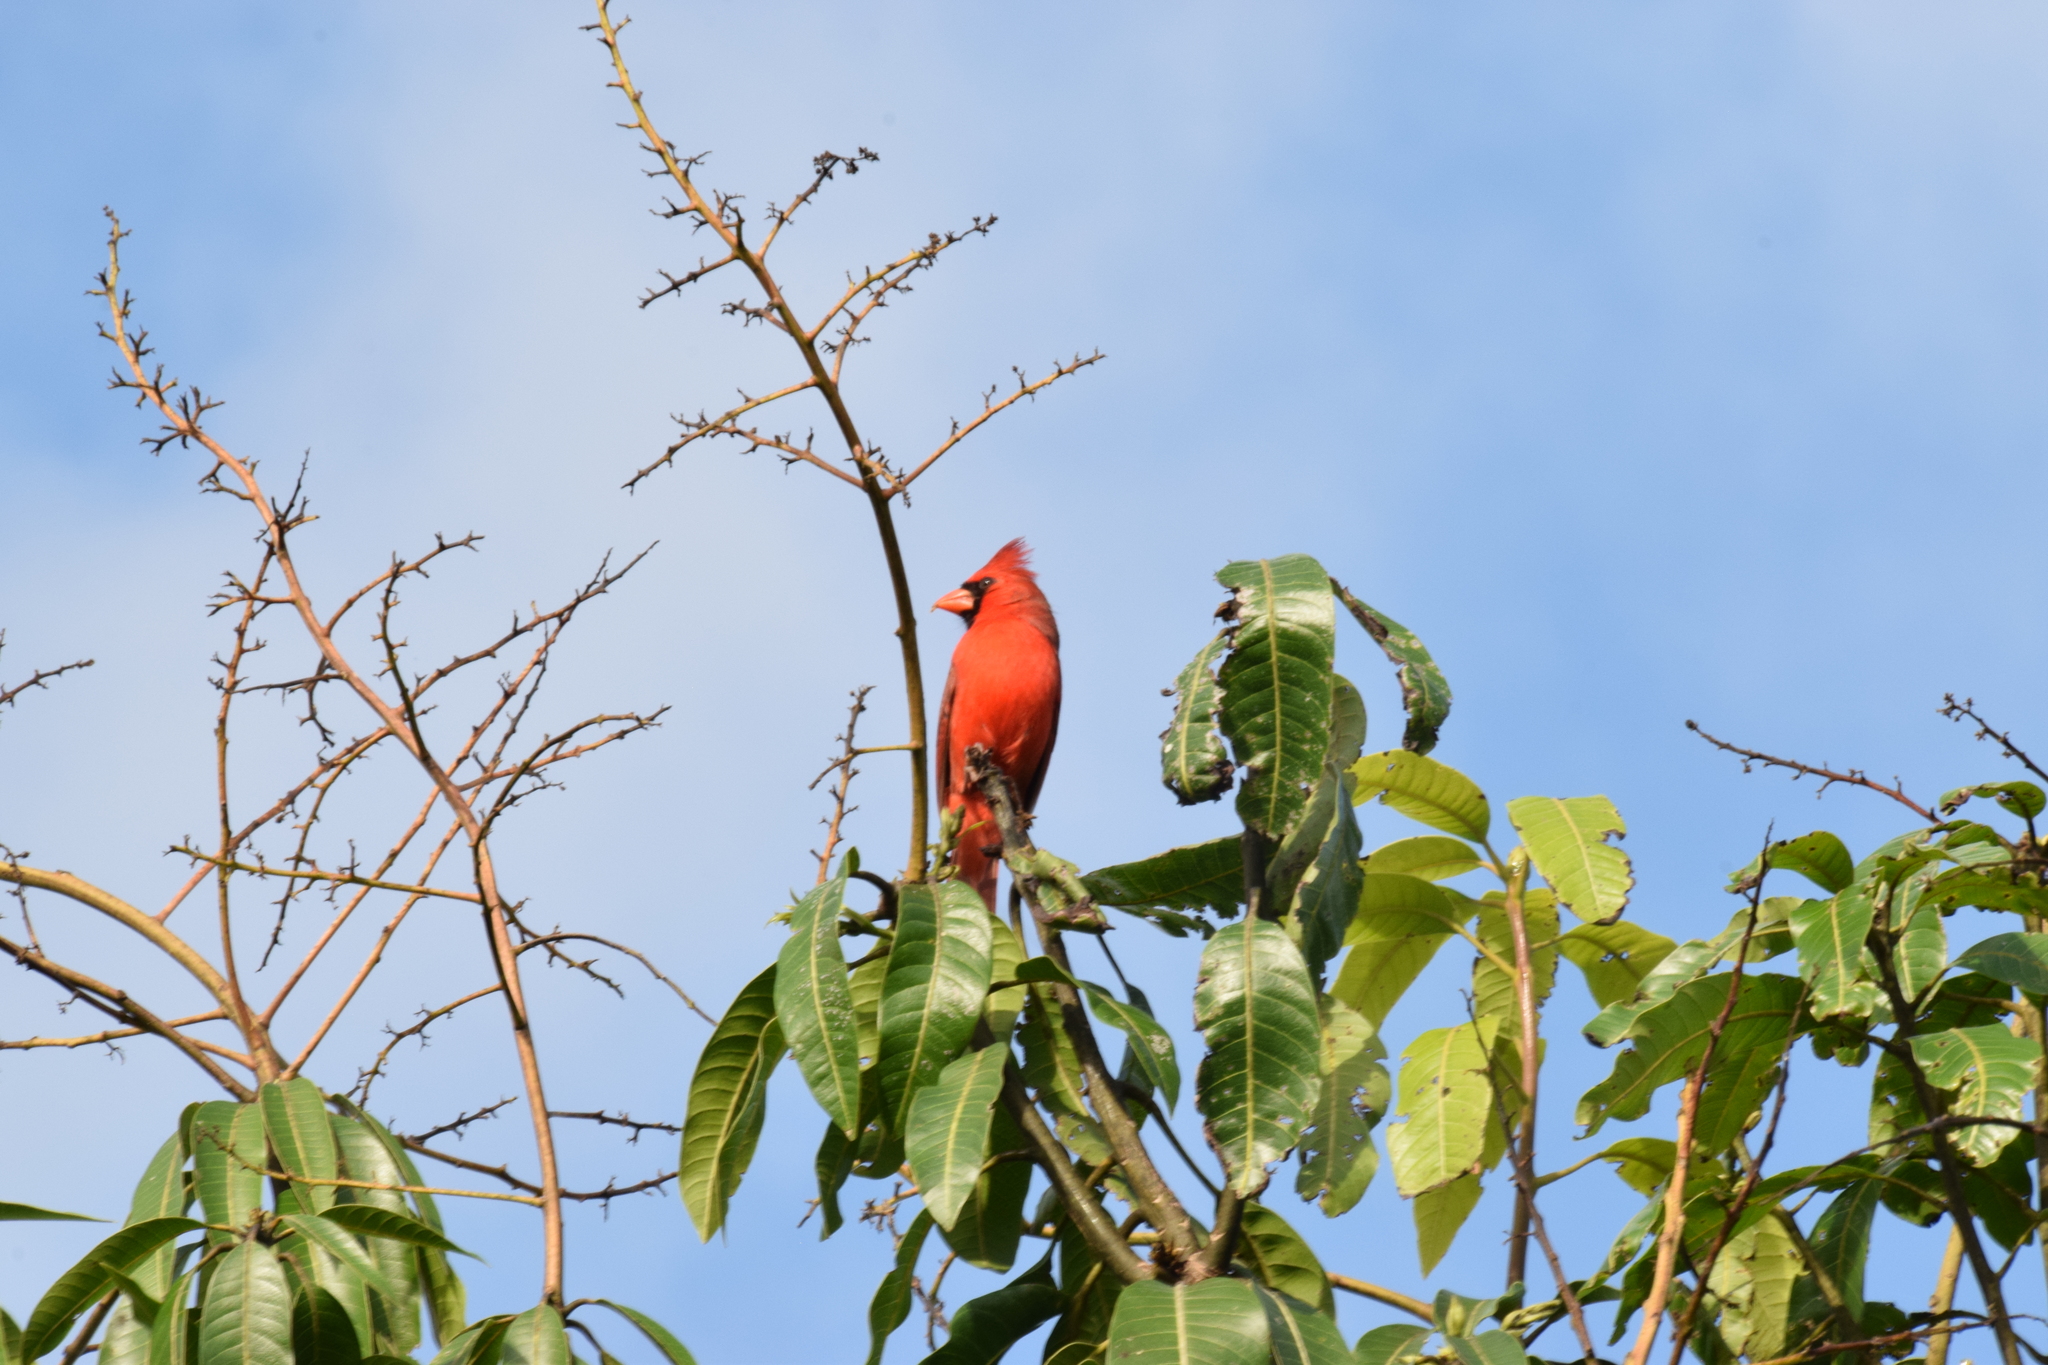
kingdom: Animalia
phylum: Chordata
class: Aves
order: Passeriformes
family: Cardinalidae
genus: Cardinalis
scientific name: Cardinalis cardinalis
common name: Northern cardinal
